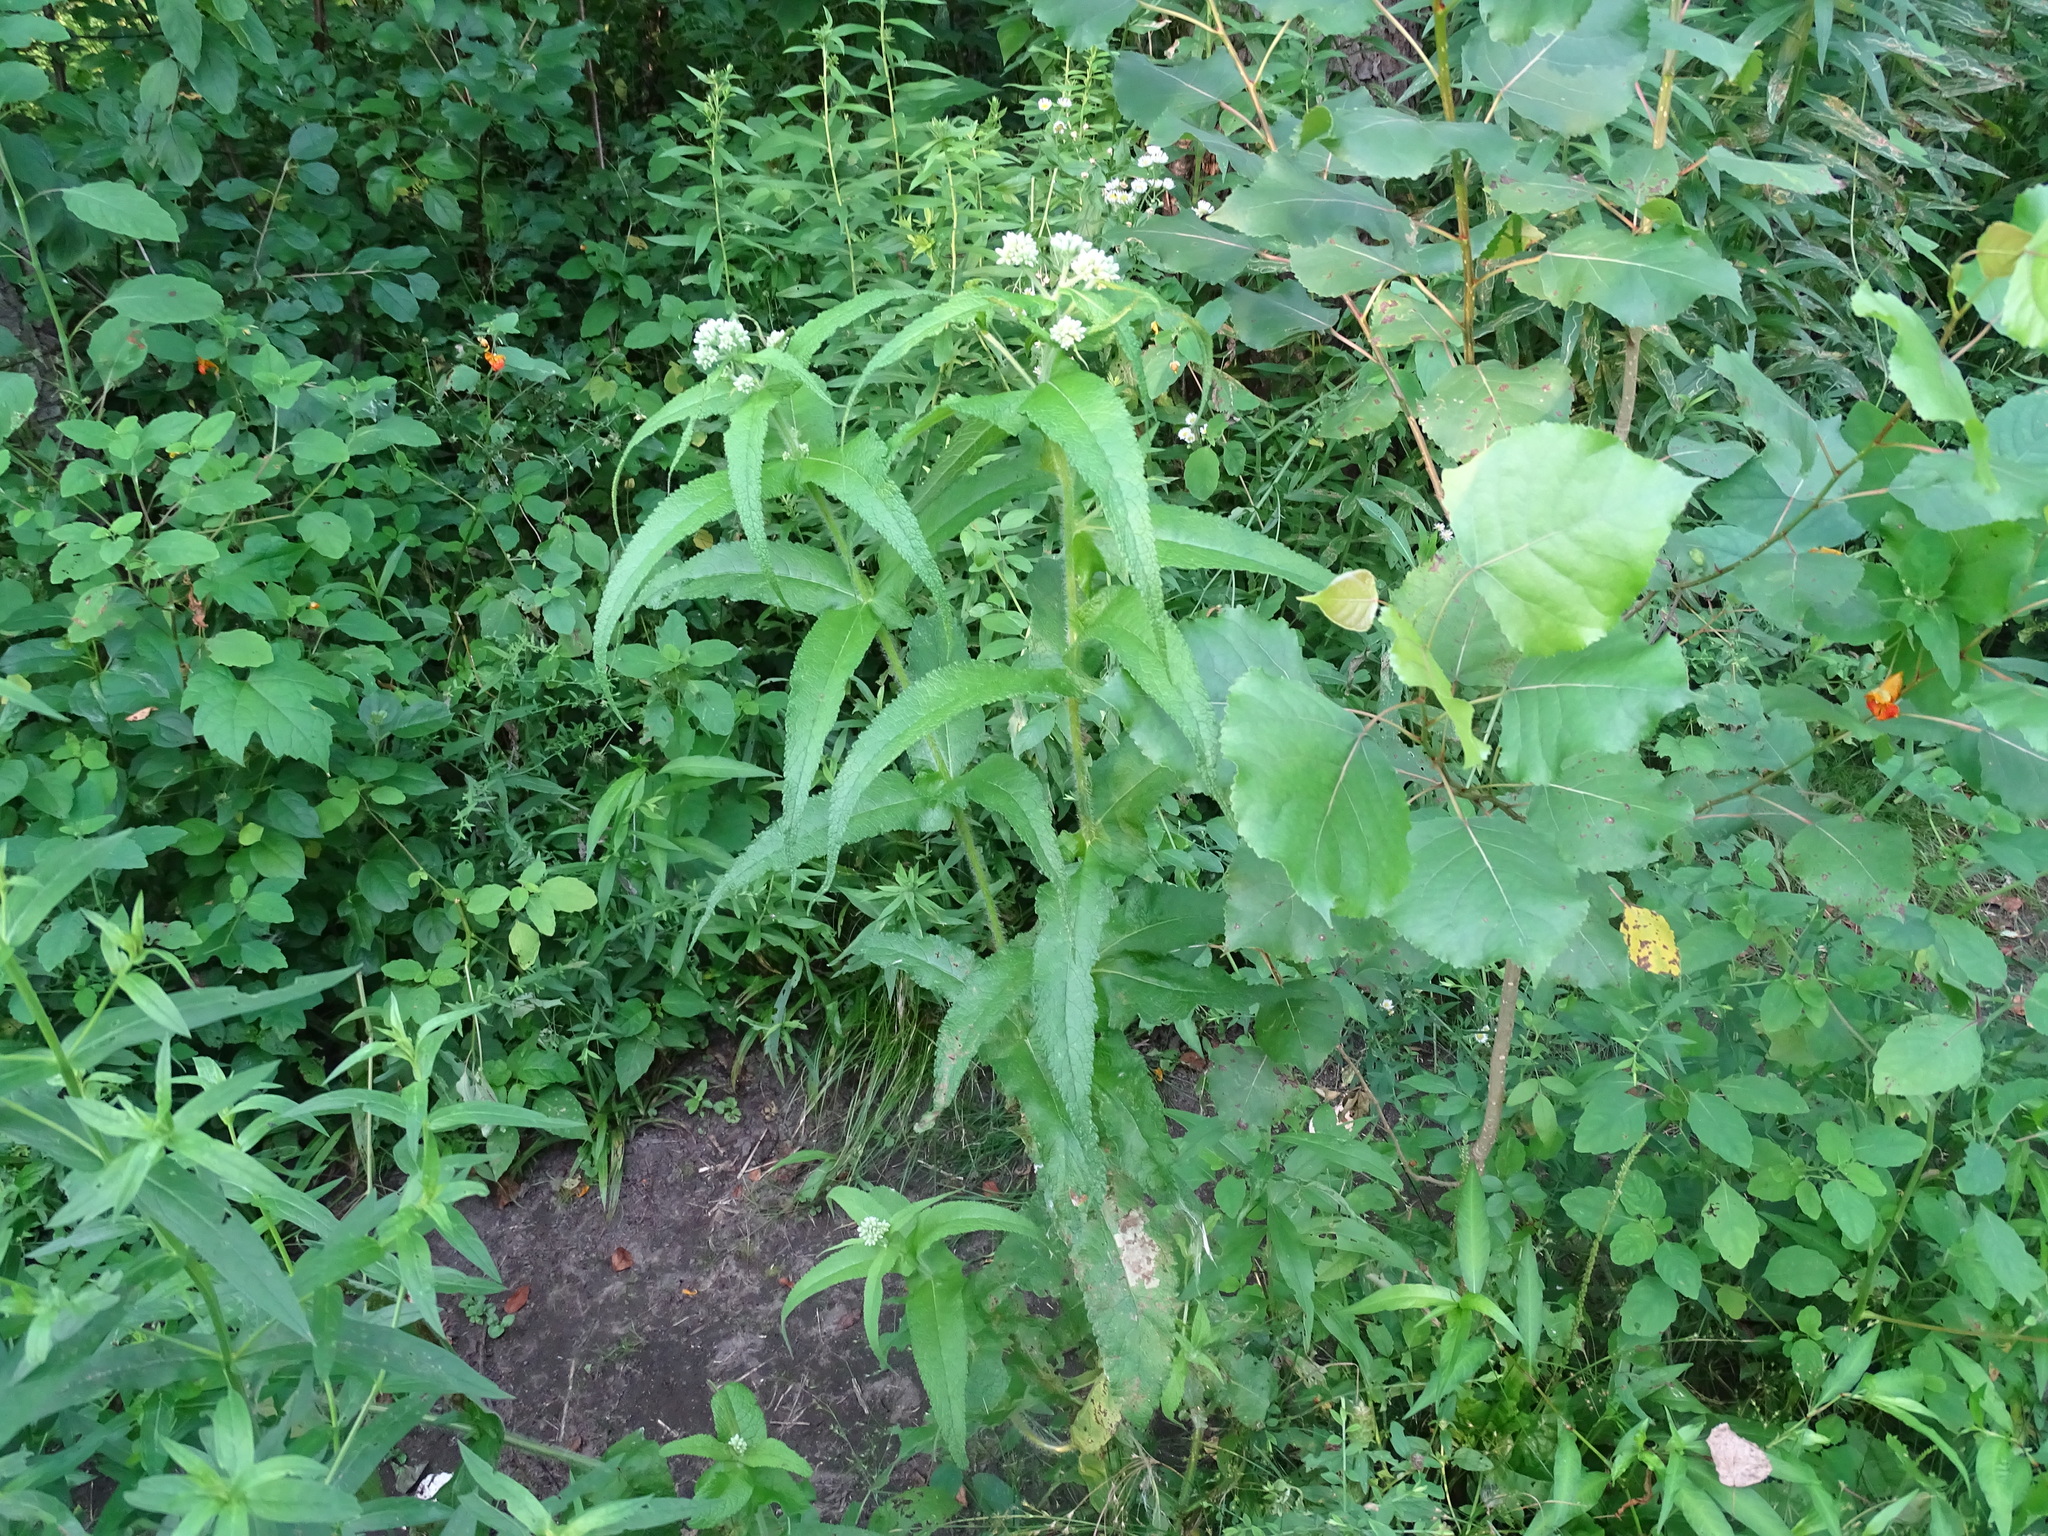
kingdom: Plantae
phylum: Tracheophyta
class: Magnoliopsida
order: Asterales
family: Asteraceae
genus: Eupatorium
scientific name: Eupatorium perfoliatum
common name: Boneset
